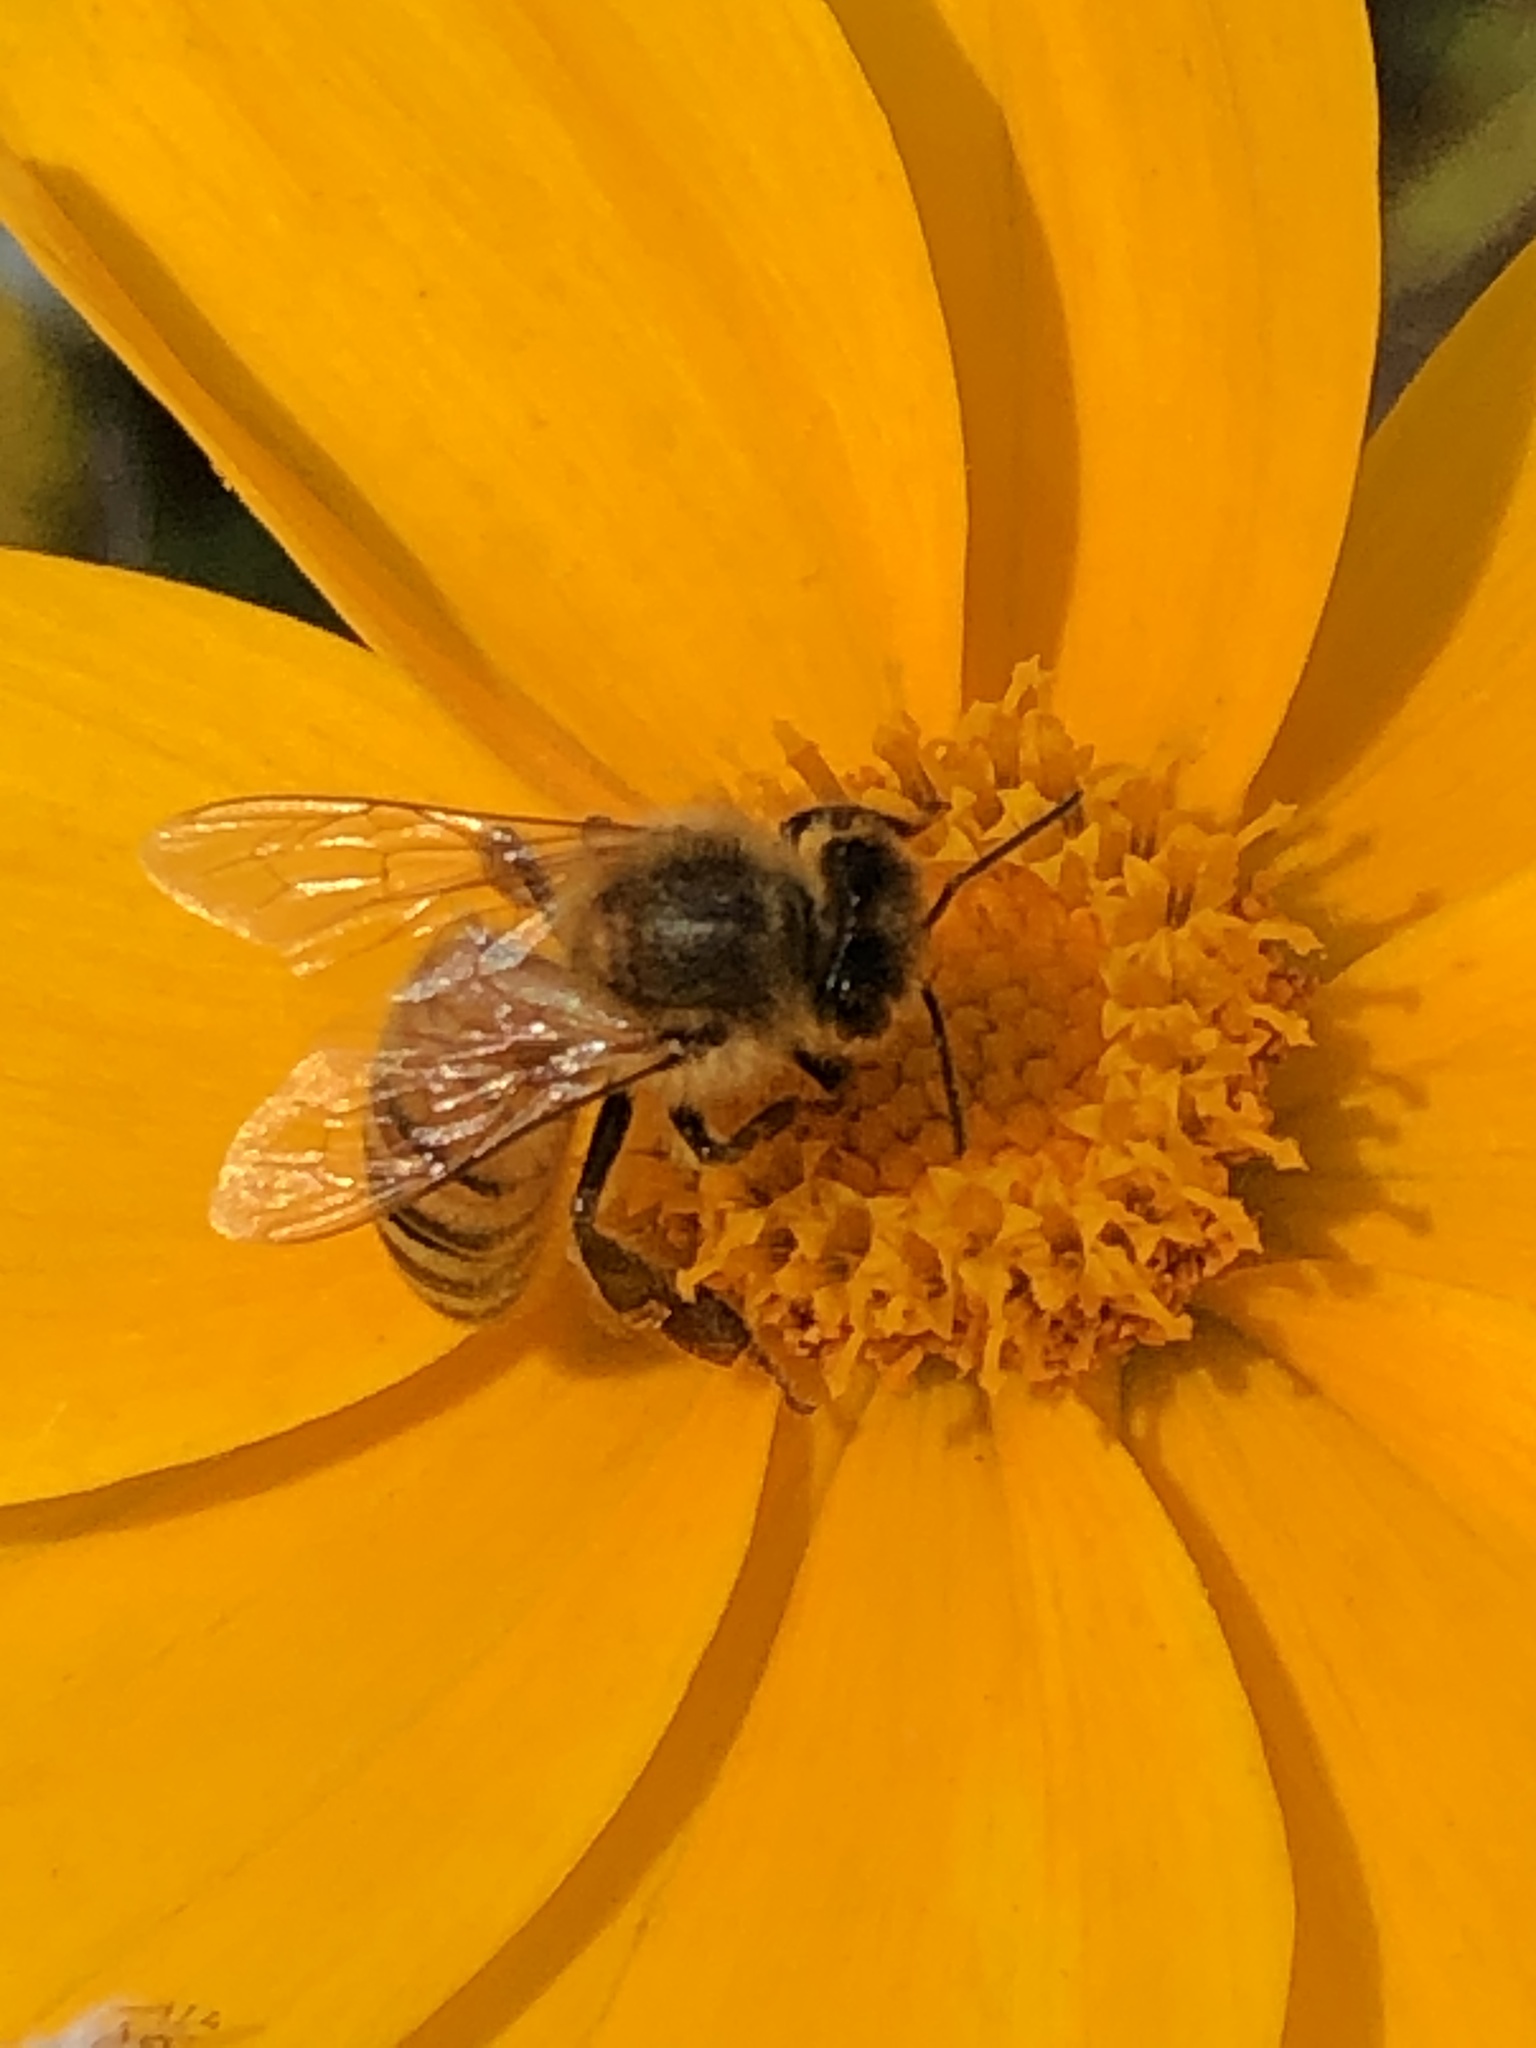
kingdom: Animalia
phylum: Arthropoda
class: Insecta
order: Hymenoptera
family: Apidae
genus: Apis
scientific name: Apis mellifera
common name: Honey bee
